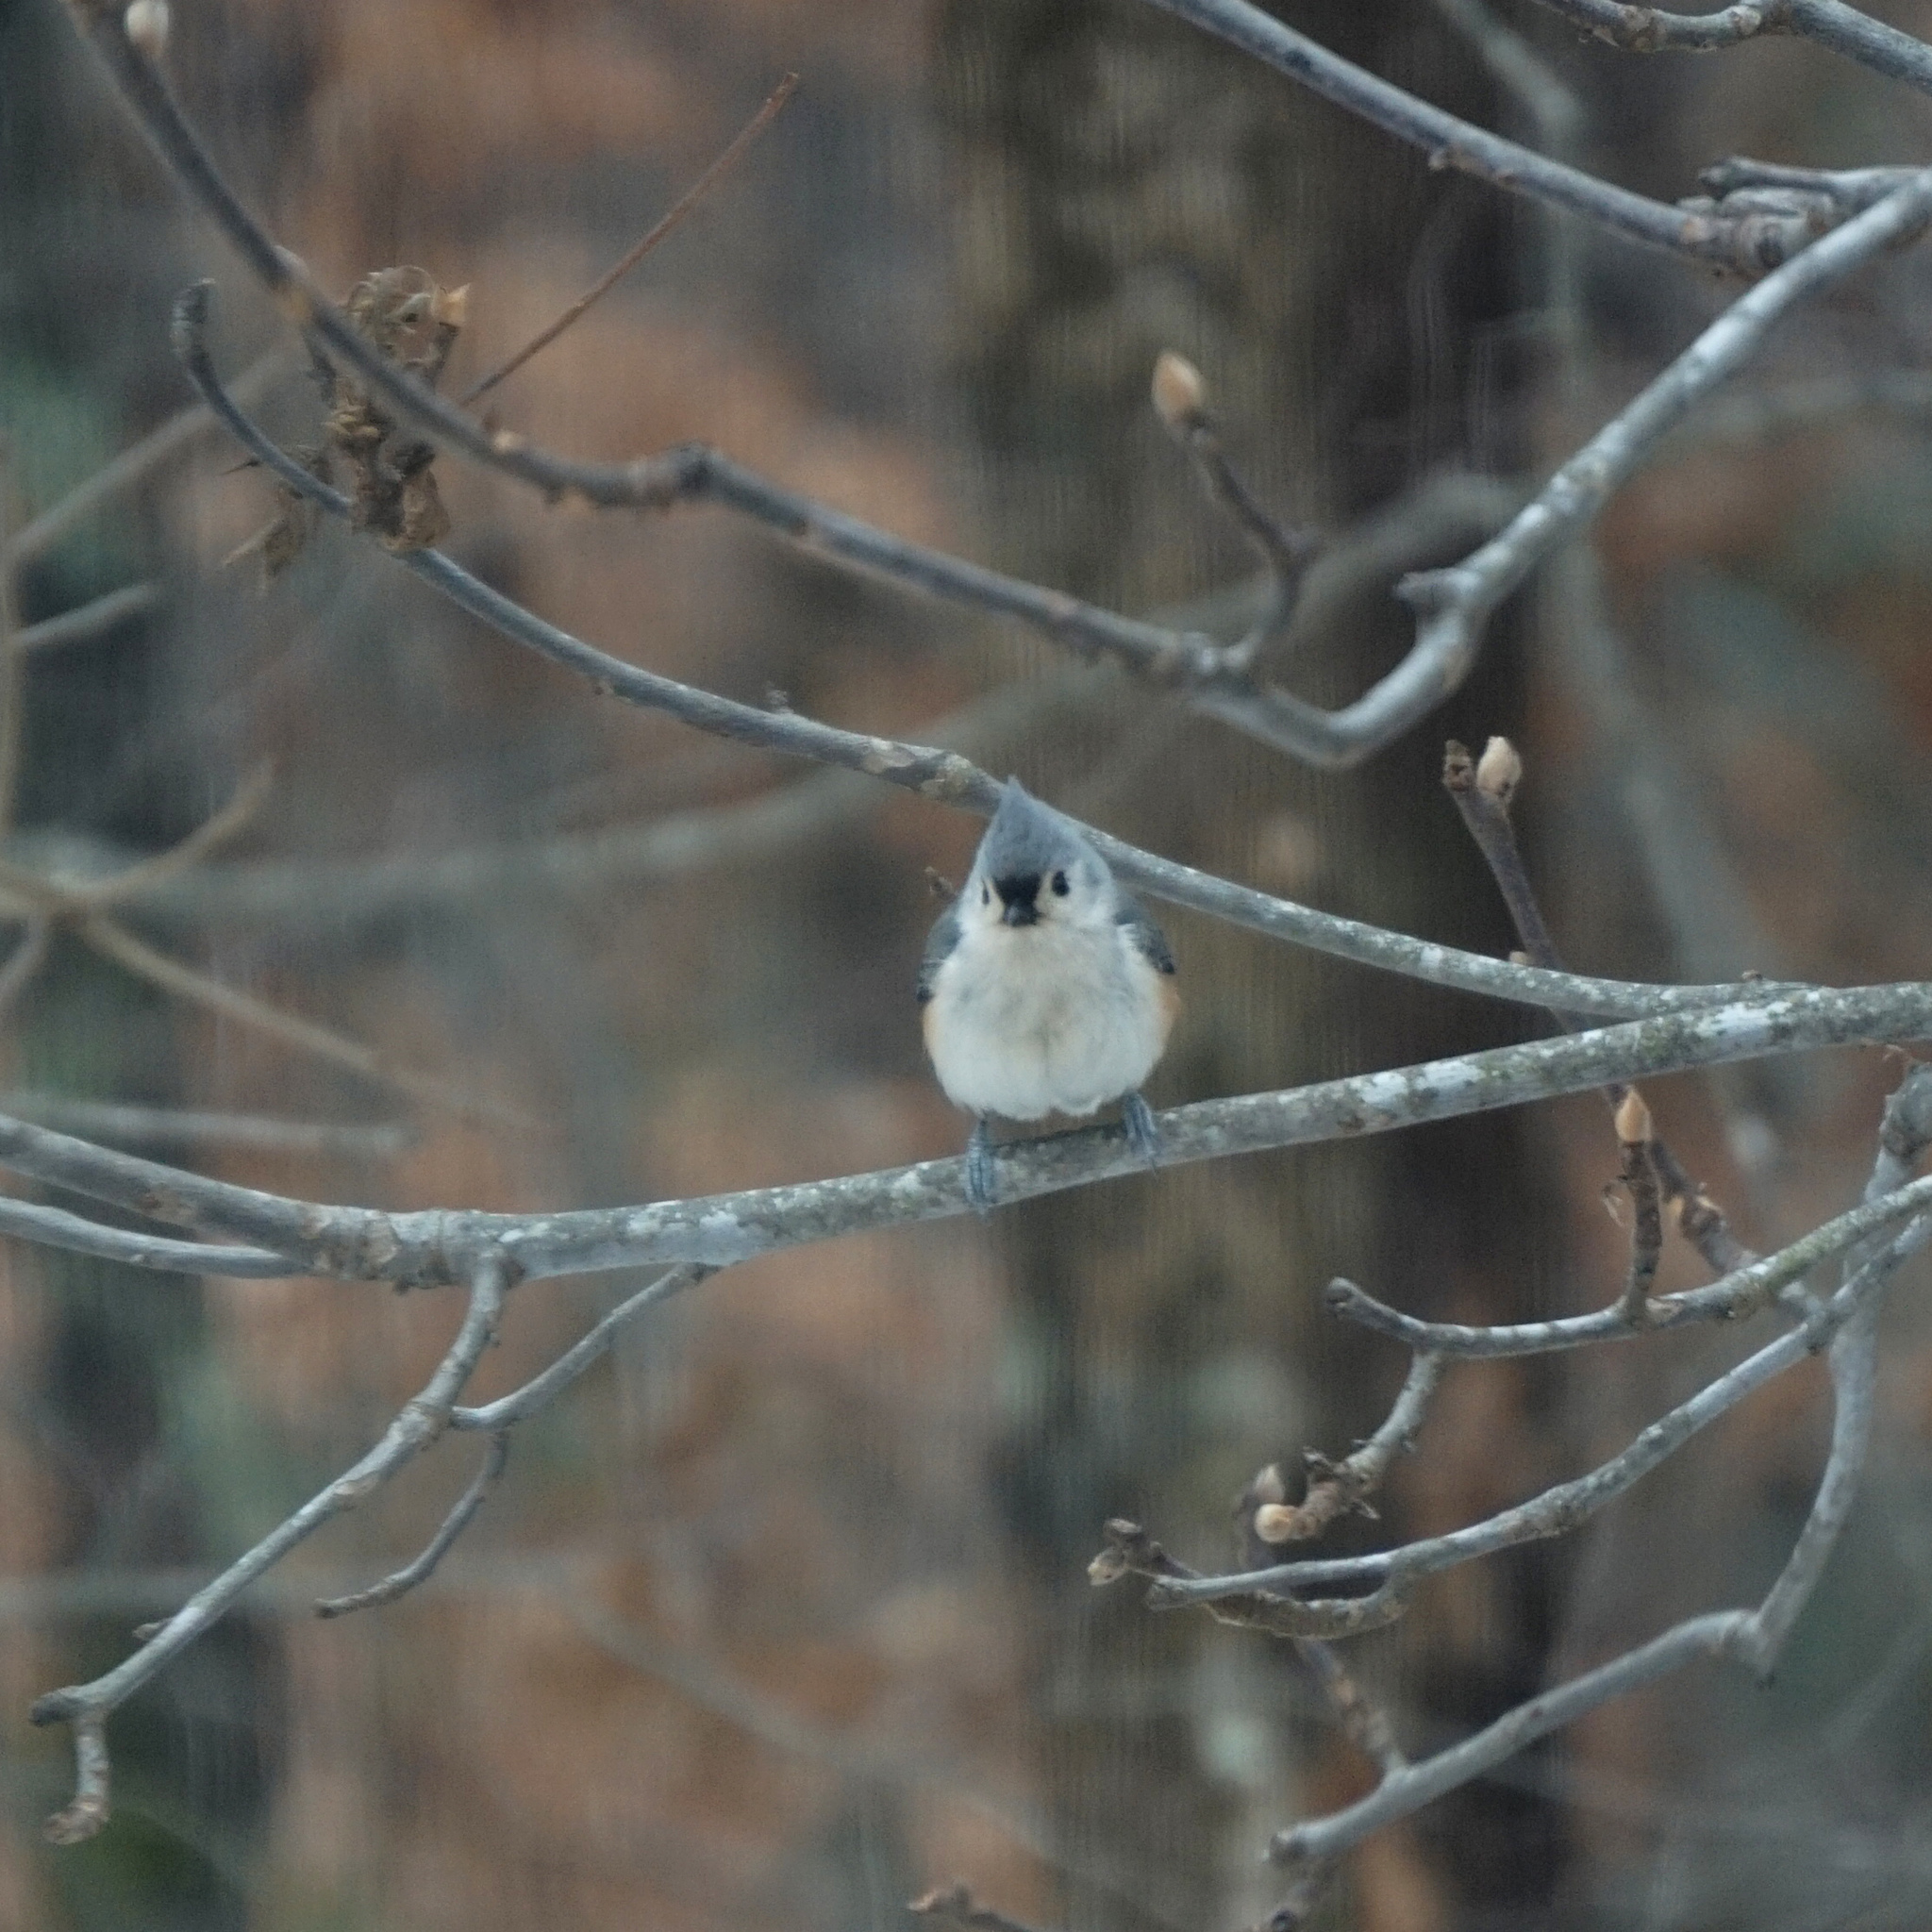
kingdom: Animalia
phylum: Chordata
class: Aves
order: Passeriformes
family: Paridae
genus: Baeolophus
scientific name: Baeolophus bicolor
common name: Tufted titmouse
